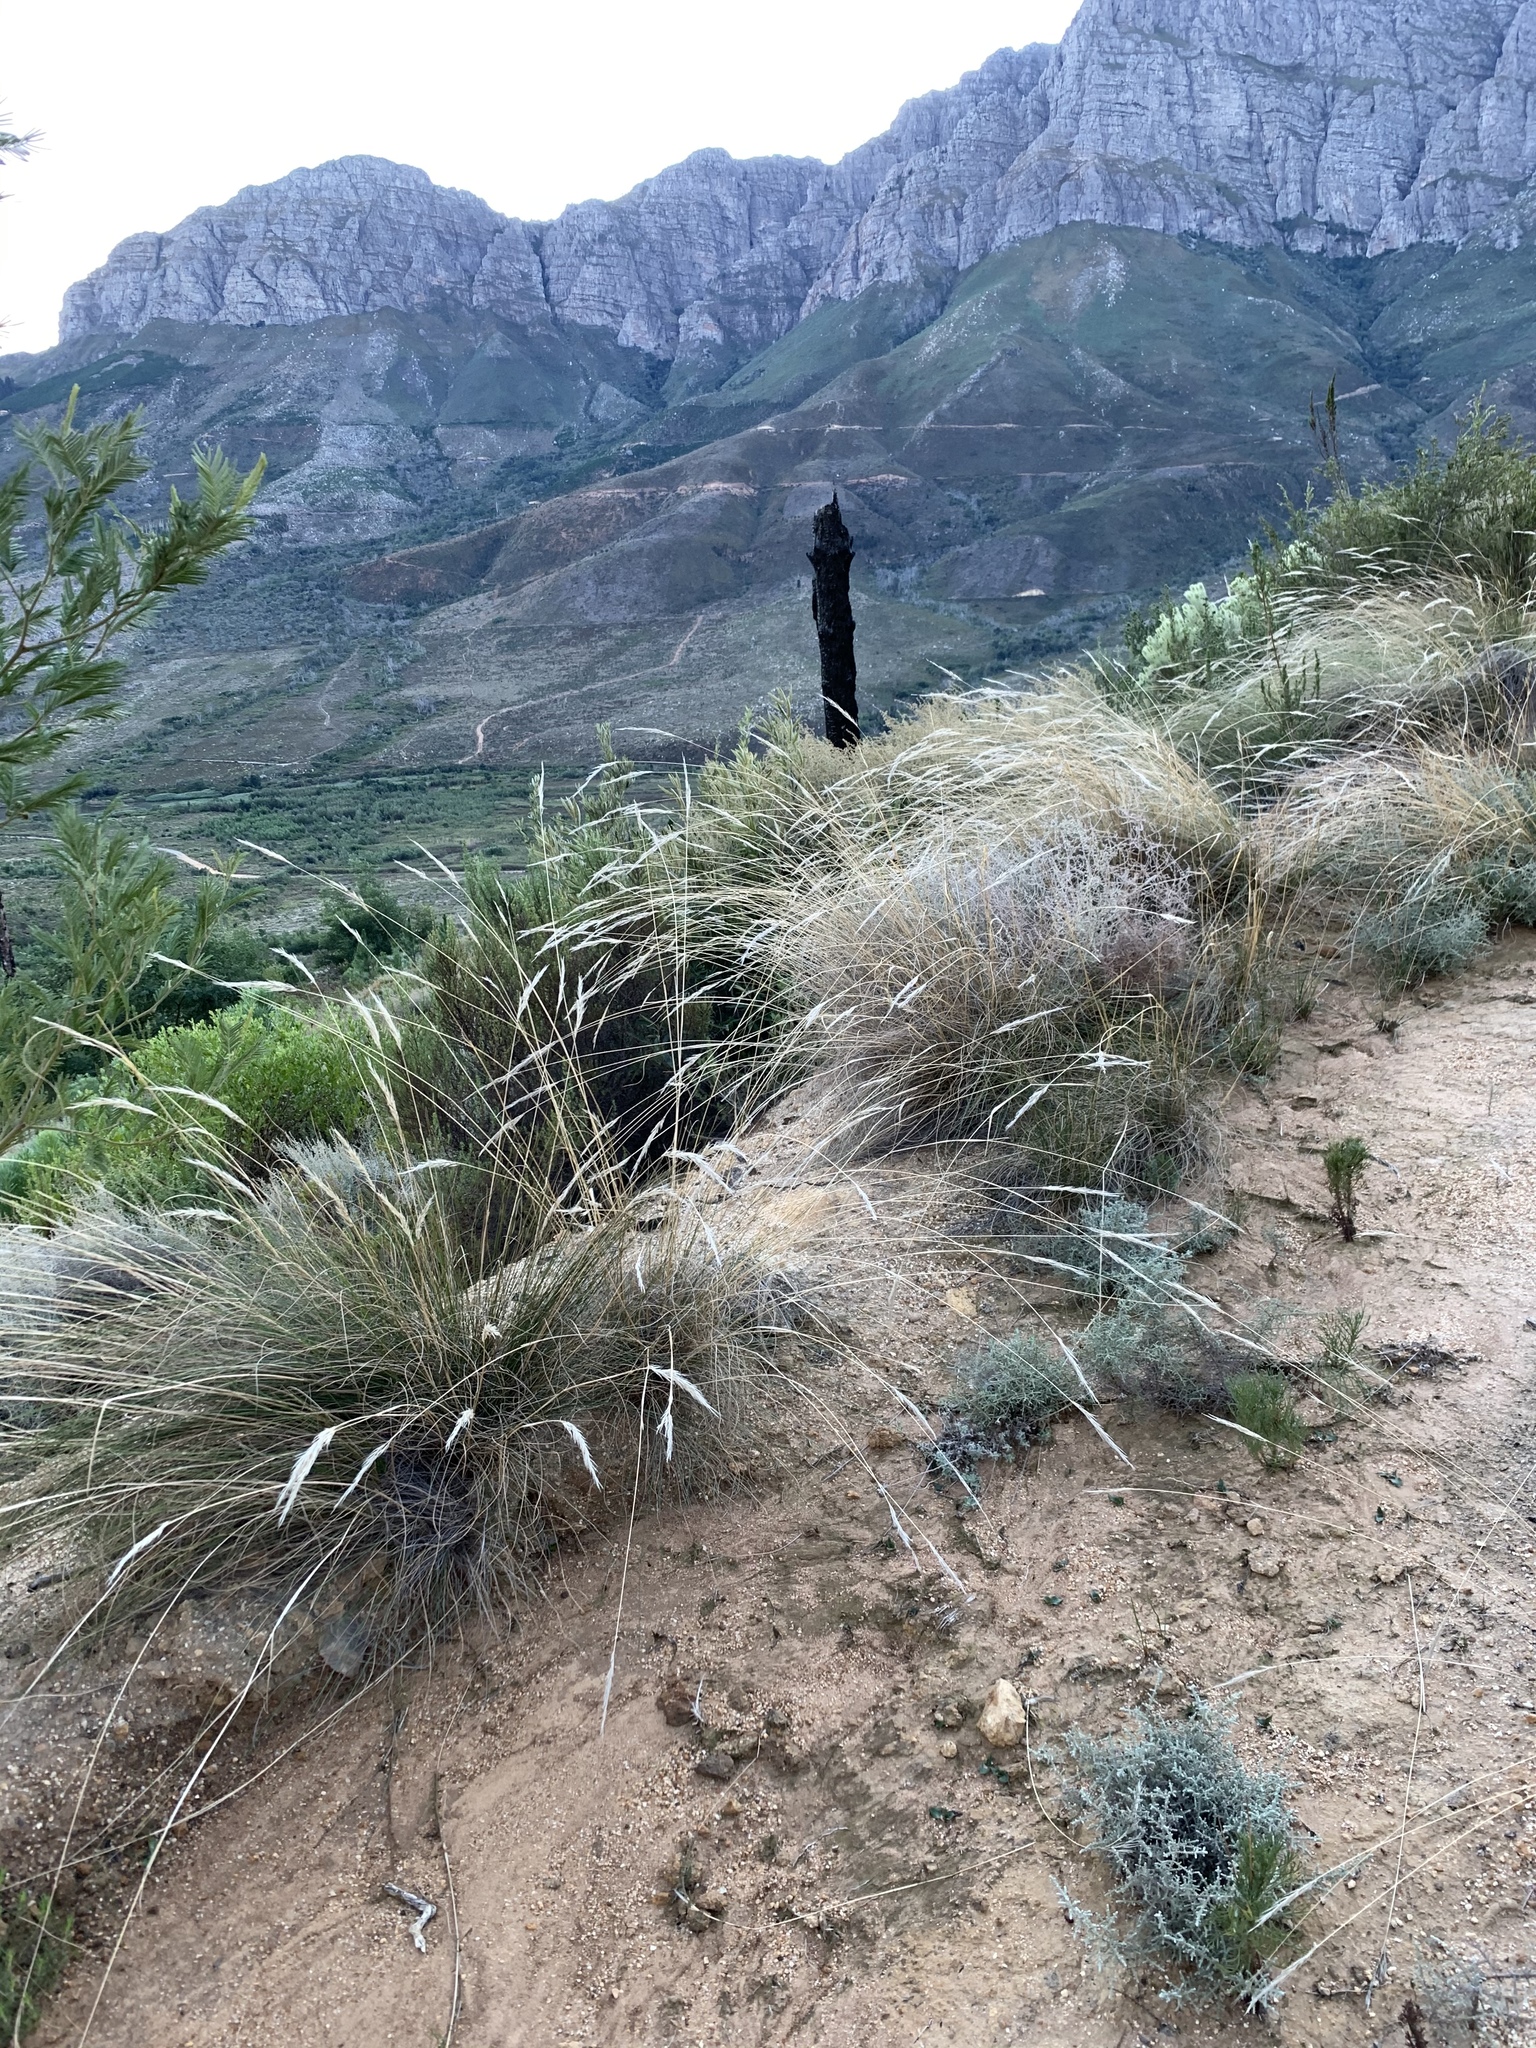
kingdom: Plantae
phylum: Tracheophyta
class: Liliopsida
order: Poales
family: Poaceae
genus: Tenaxia
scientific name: Tenaxia stricta
